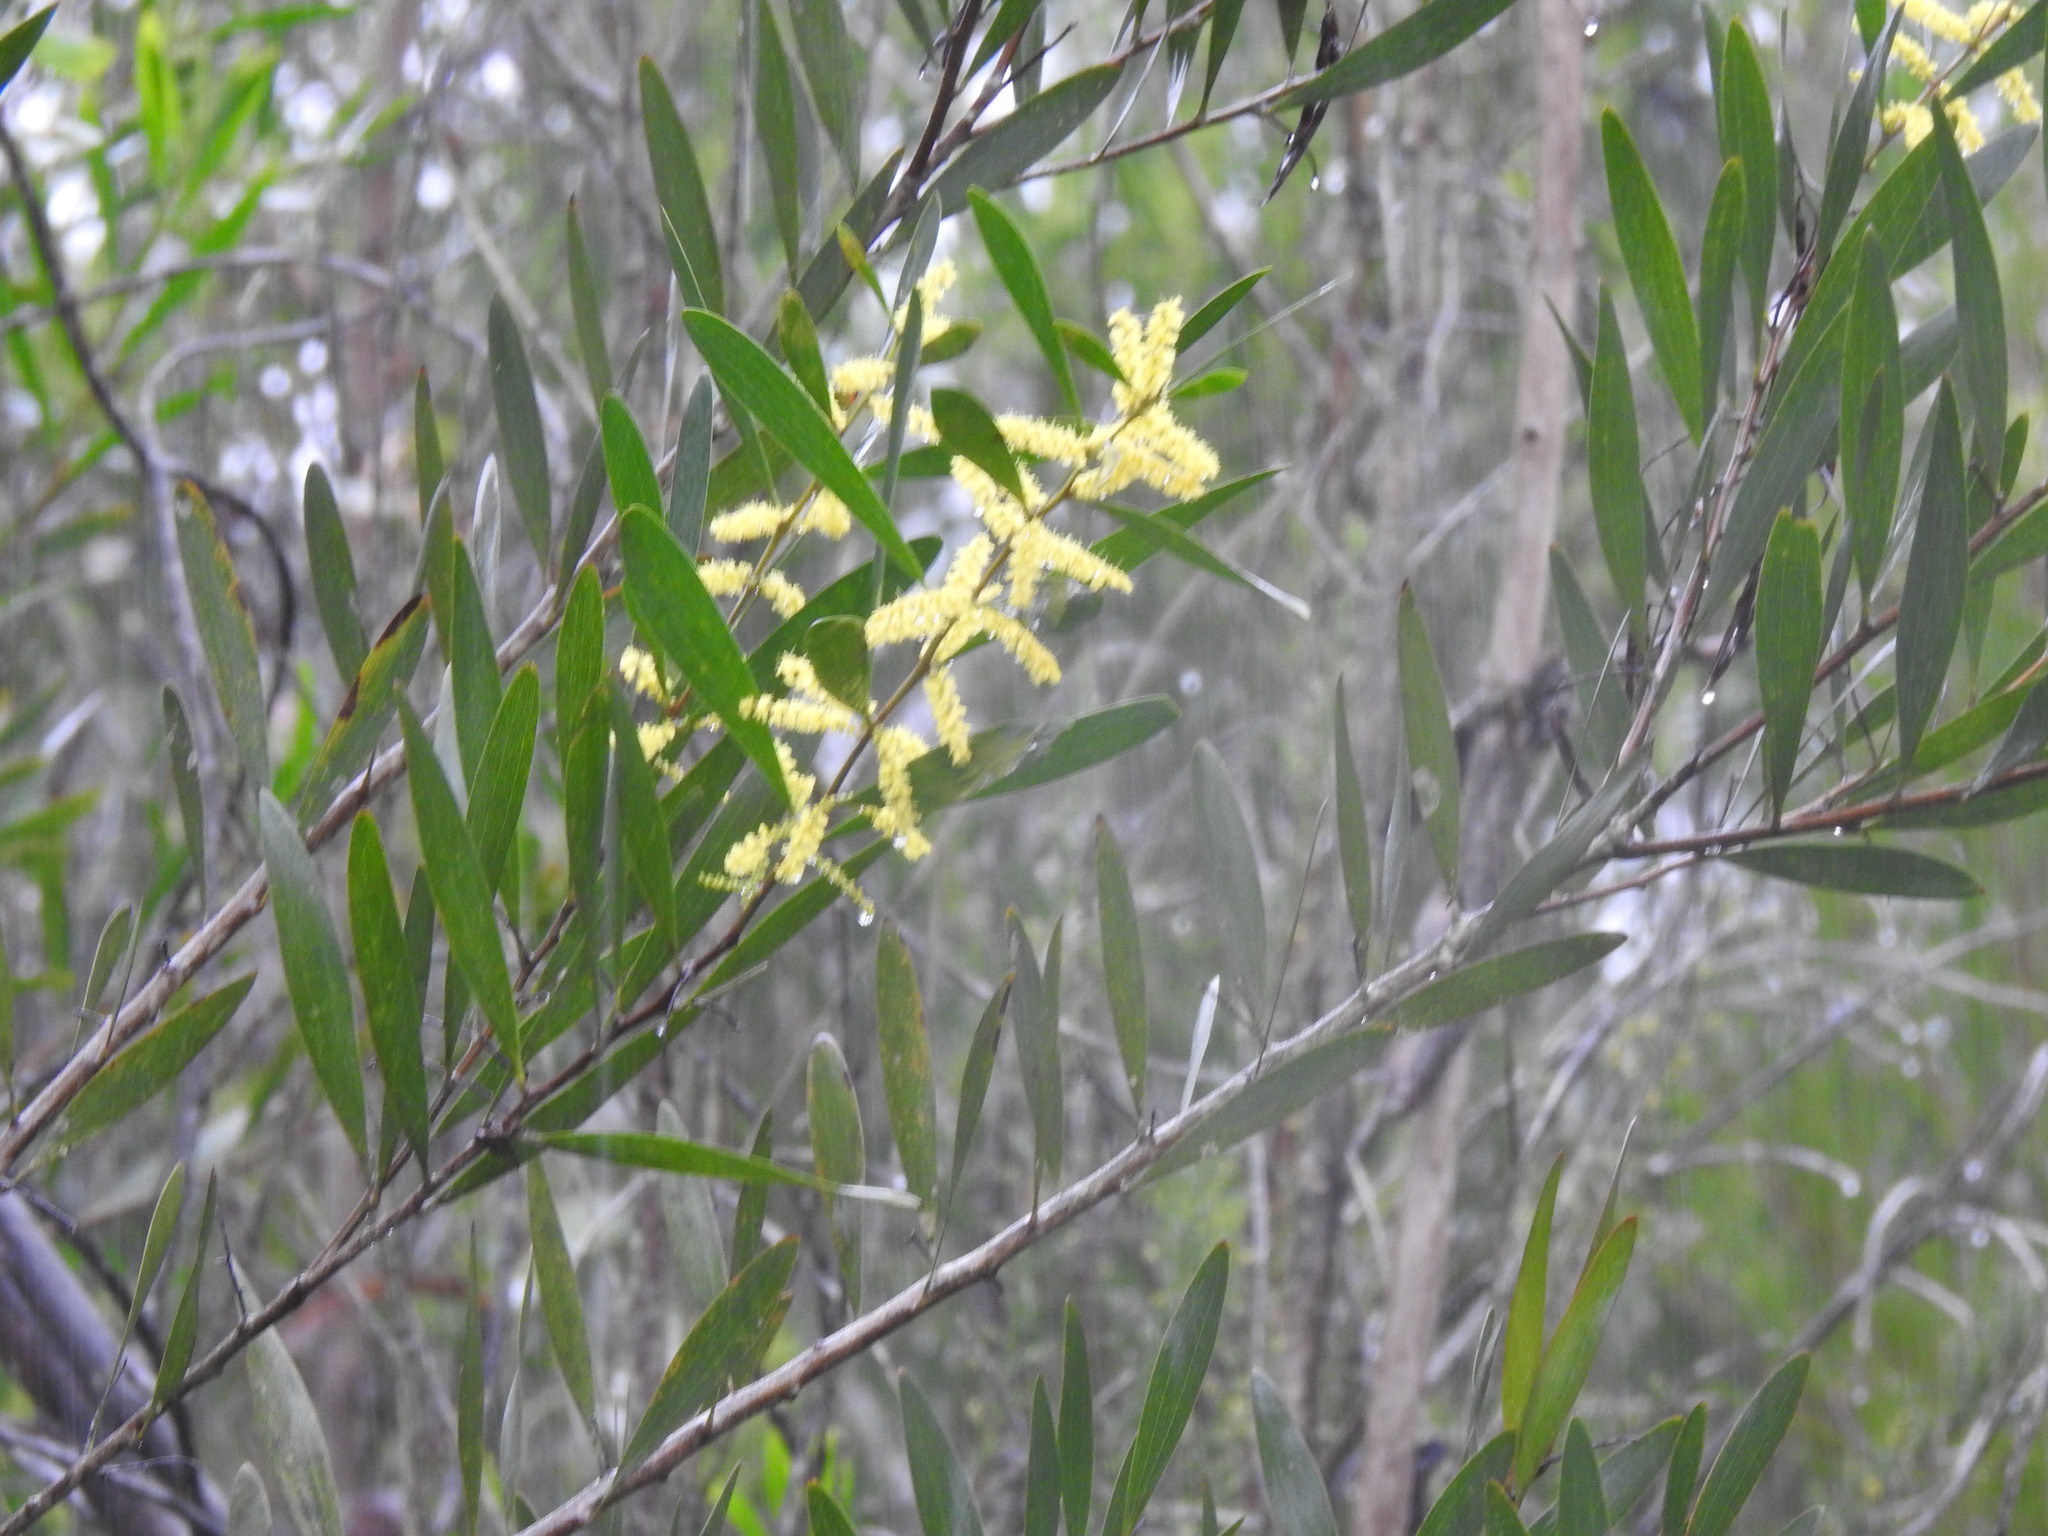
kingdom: Plantae
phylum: Tracheophyta
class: Magnoliopsida
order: Fabales
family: Fabaceae
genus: Acacia
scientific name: Acacia longifolia
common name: Sydney golden wattle
